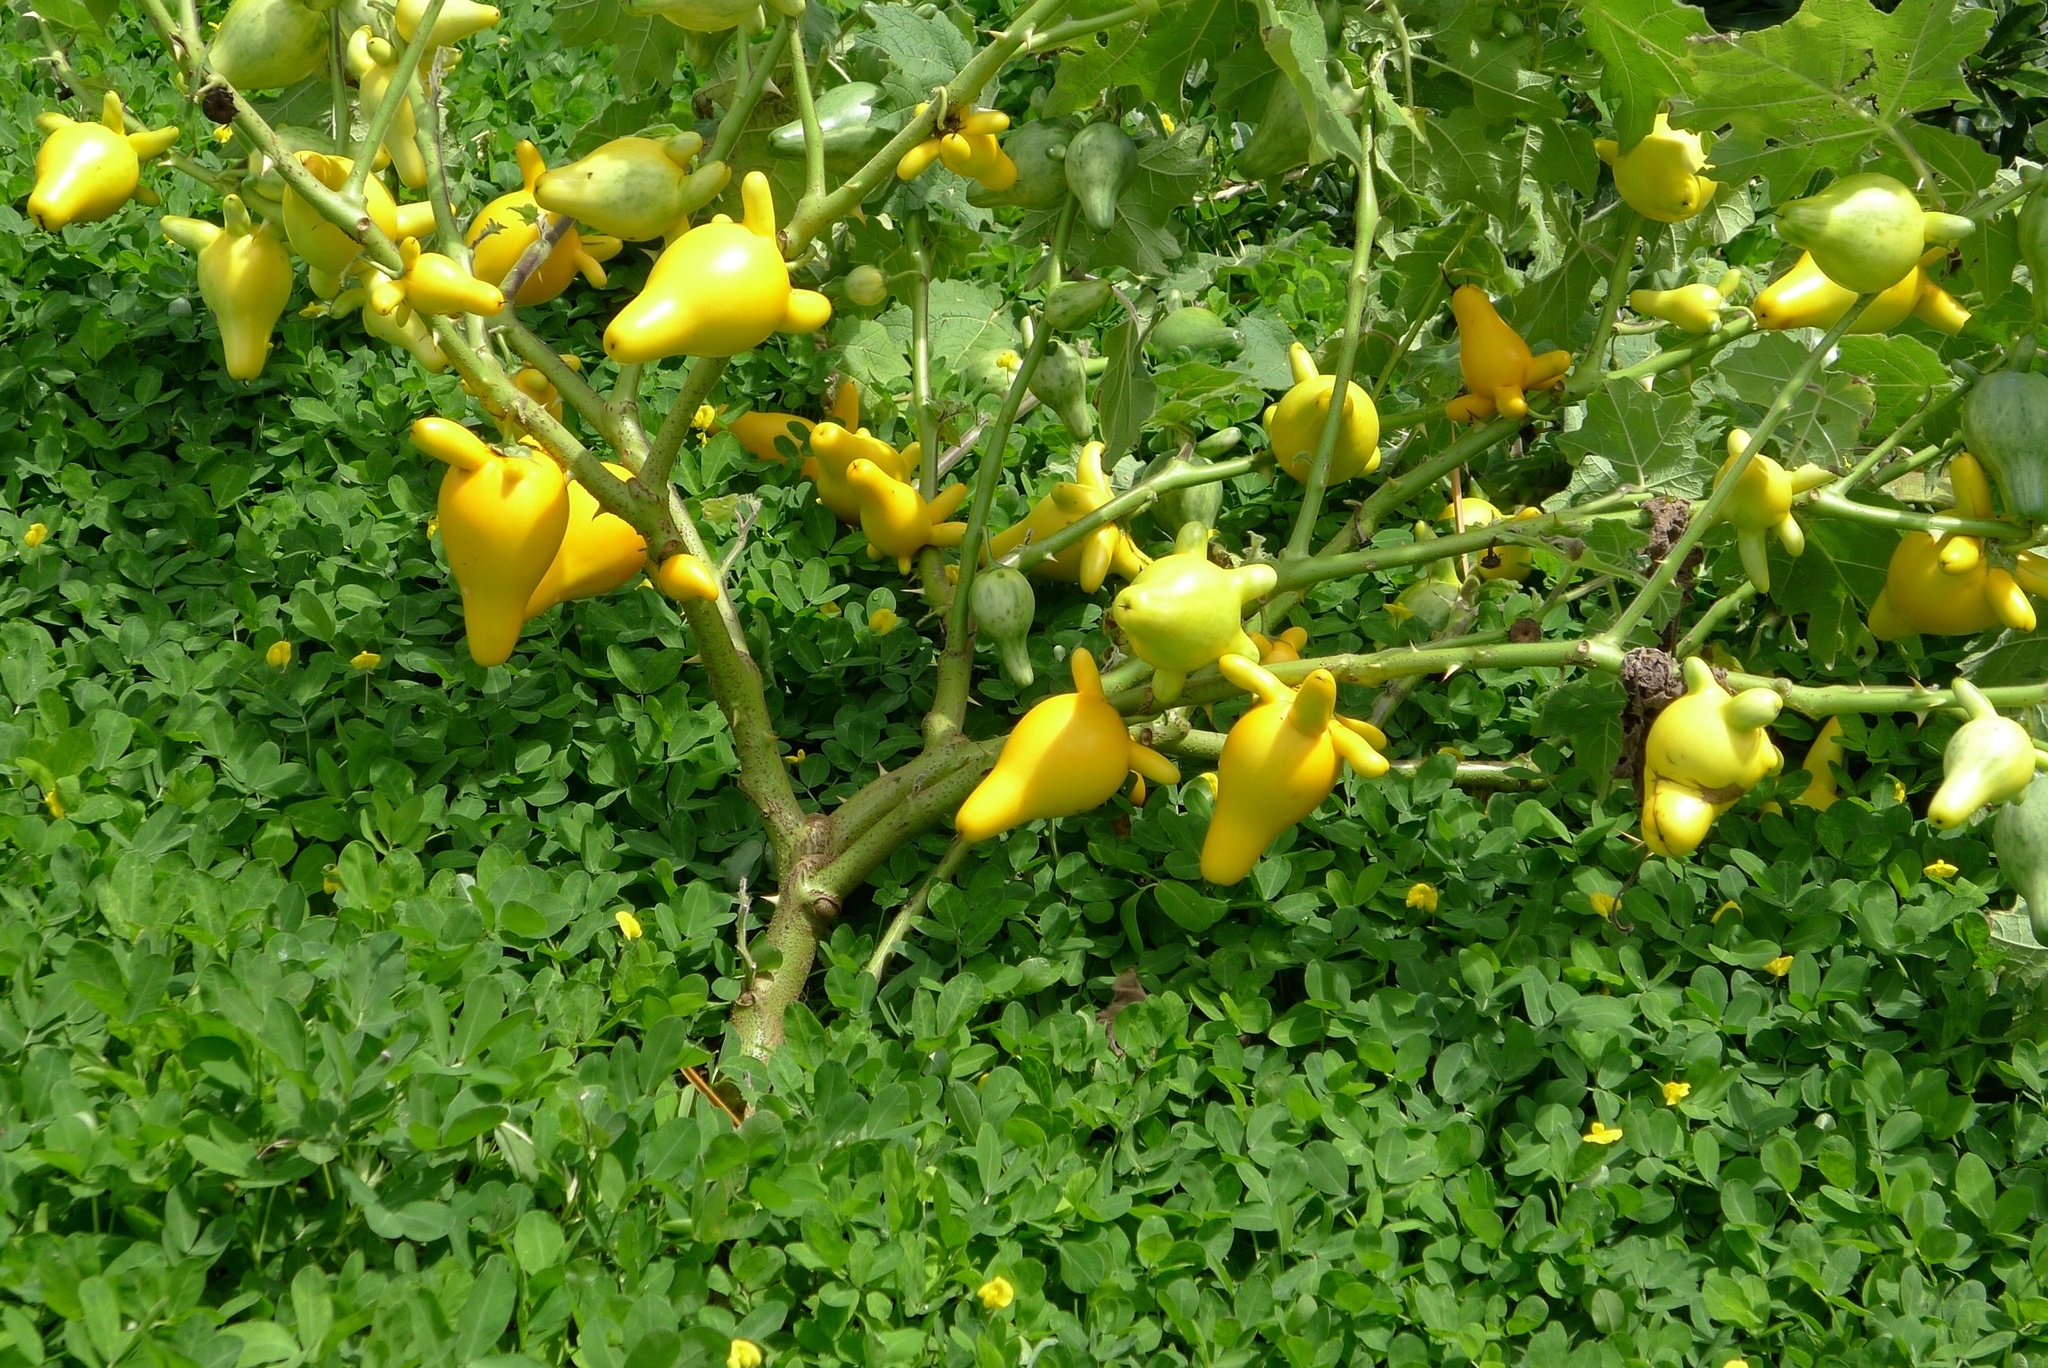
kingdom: Plantae
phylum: Tracheophyta
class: Magnoliopsida
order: Solanales
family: Solanaceae
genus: Solanum
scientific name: Solanum mammosum
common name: Nipple fruit
